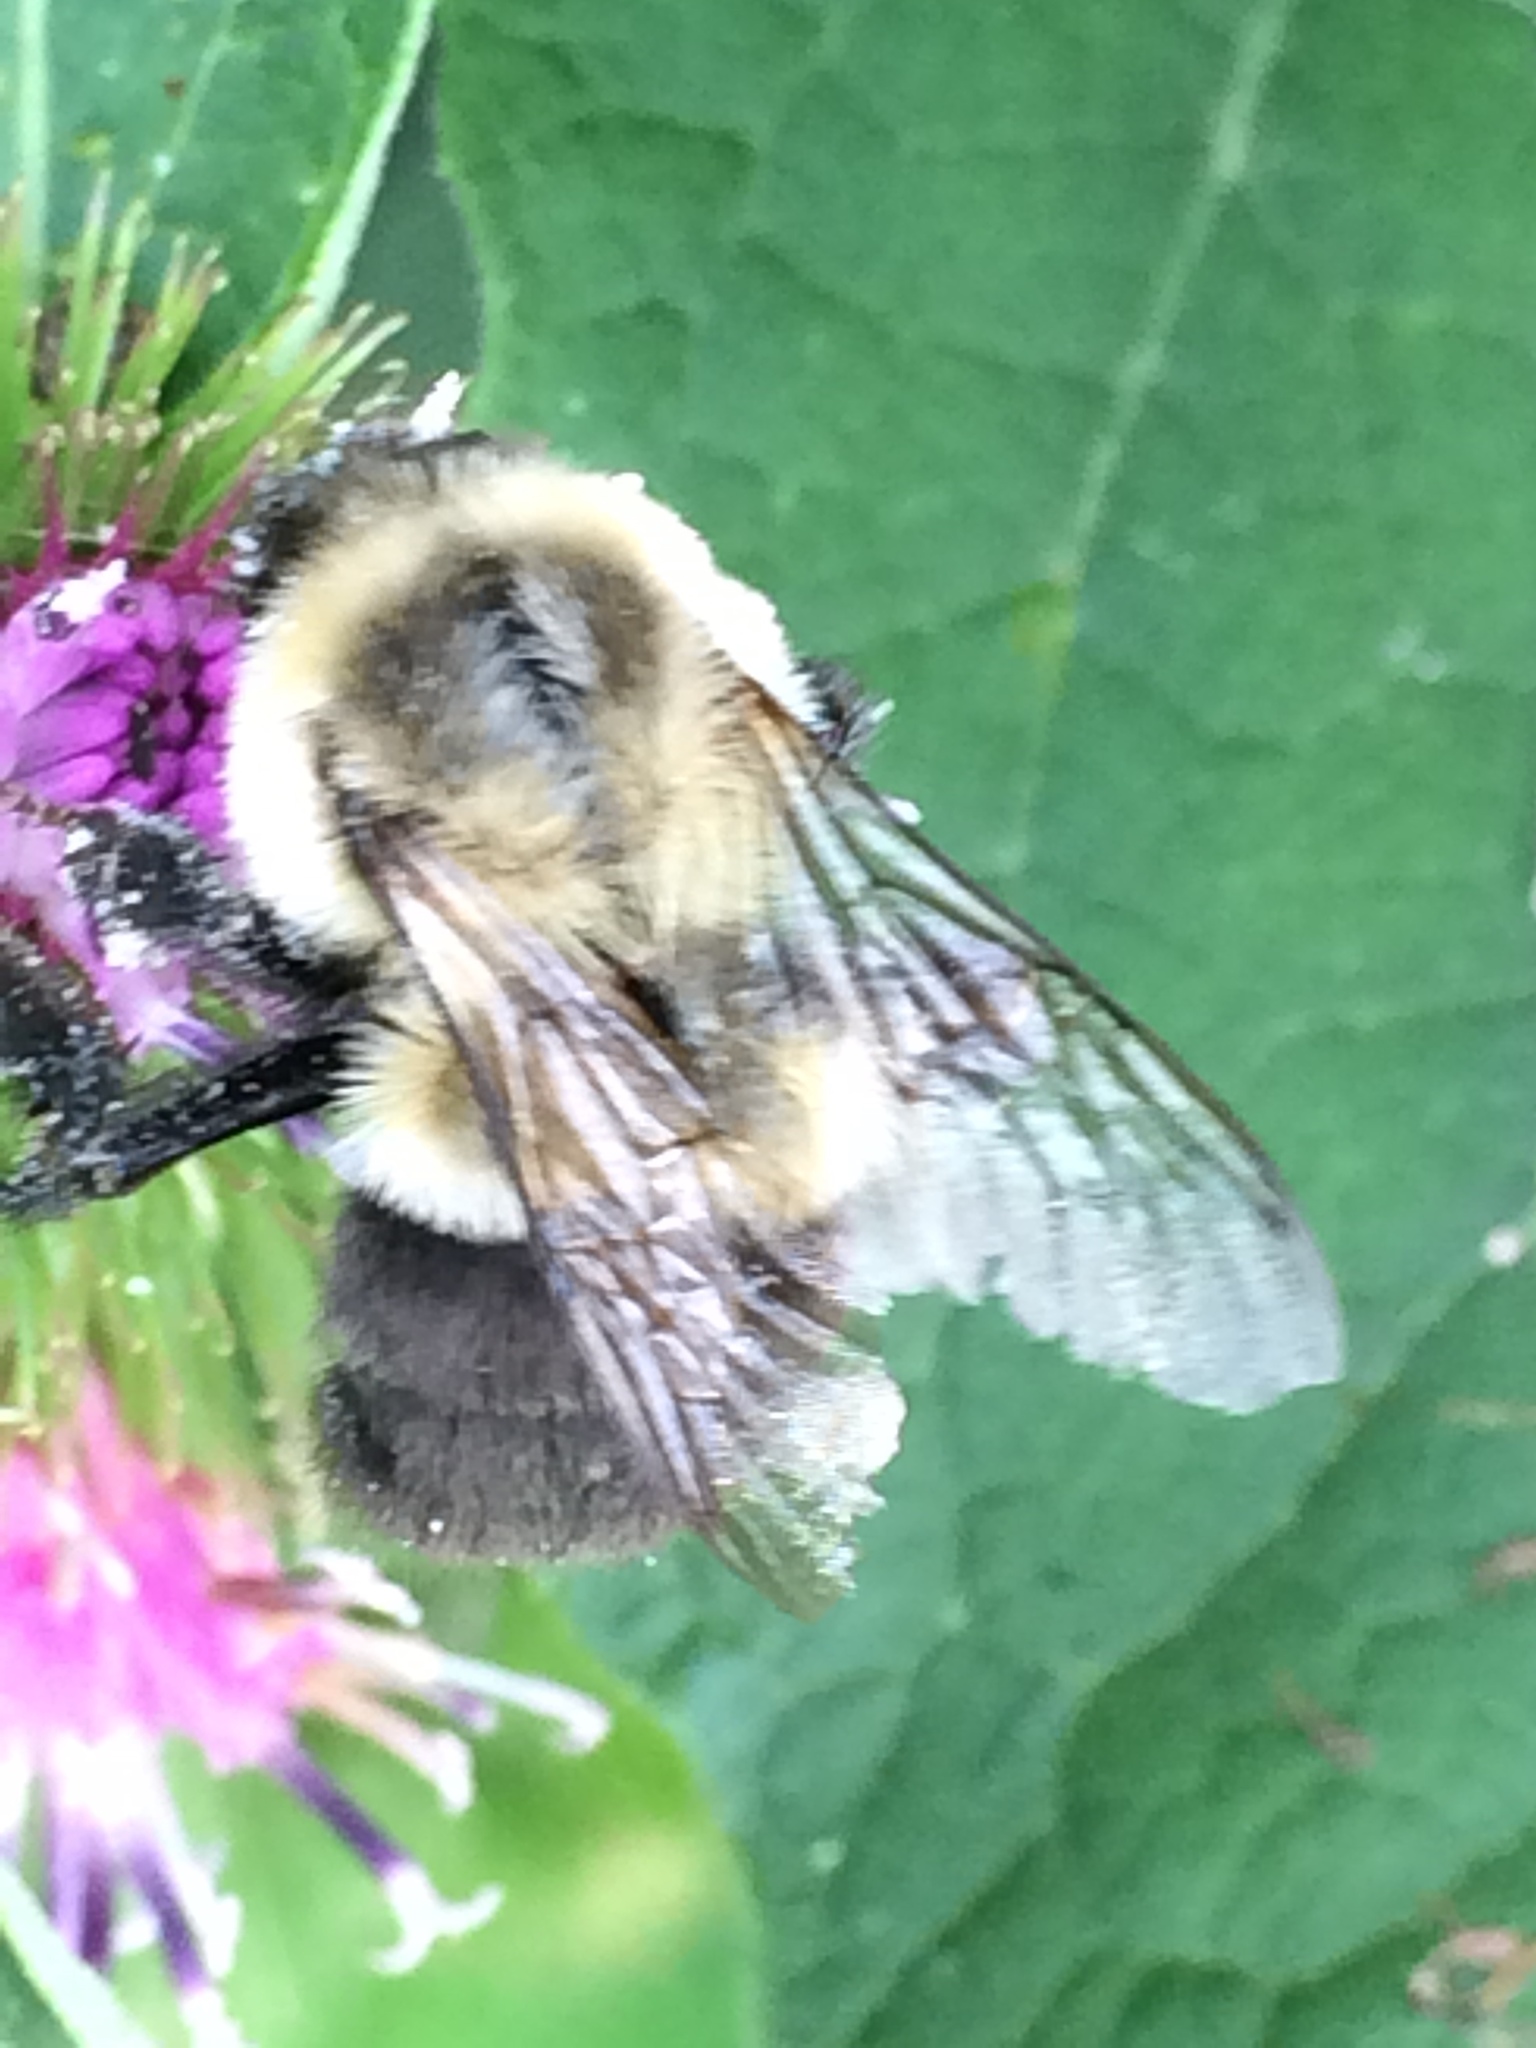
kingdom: Animalia
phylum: Arthropoda
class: Insecta
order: Hymenoptera
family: Apidae
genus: Bombus
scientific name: Bombus impatiens
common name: Common eastern bumble bee
